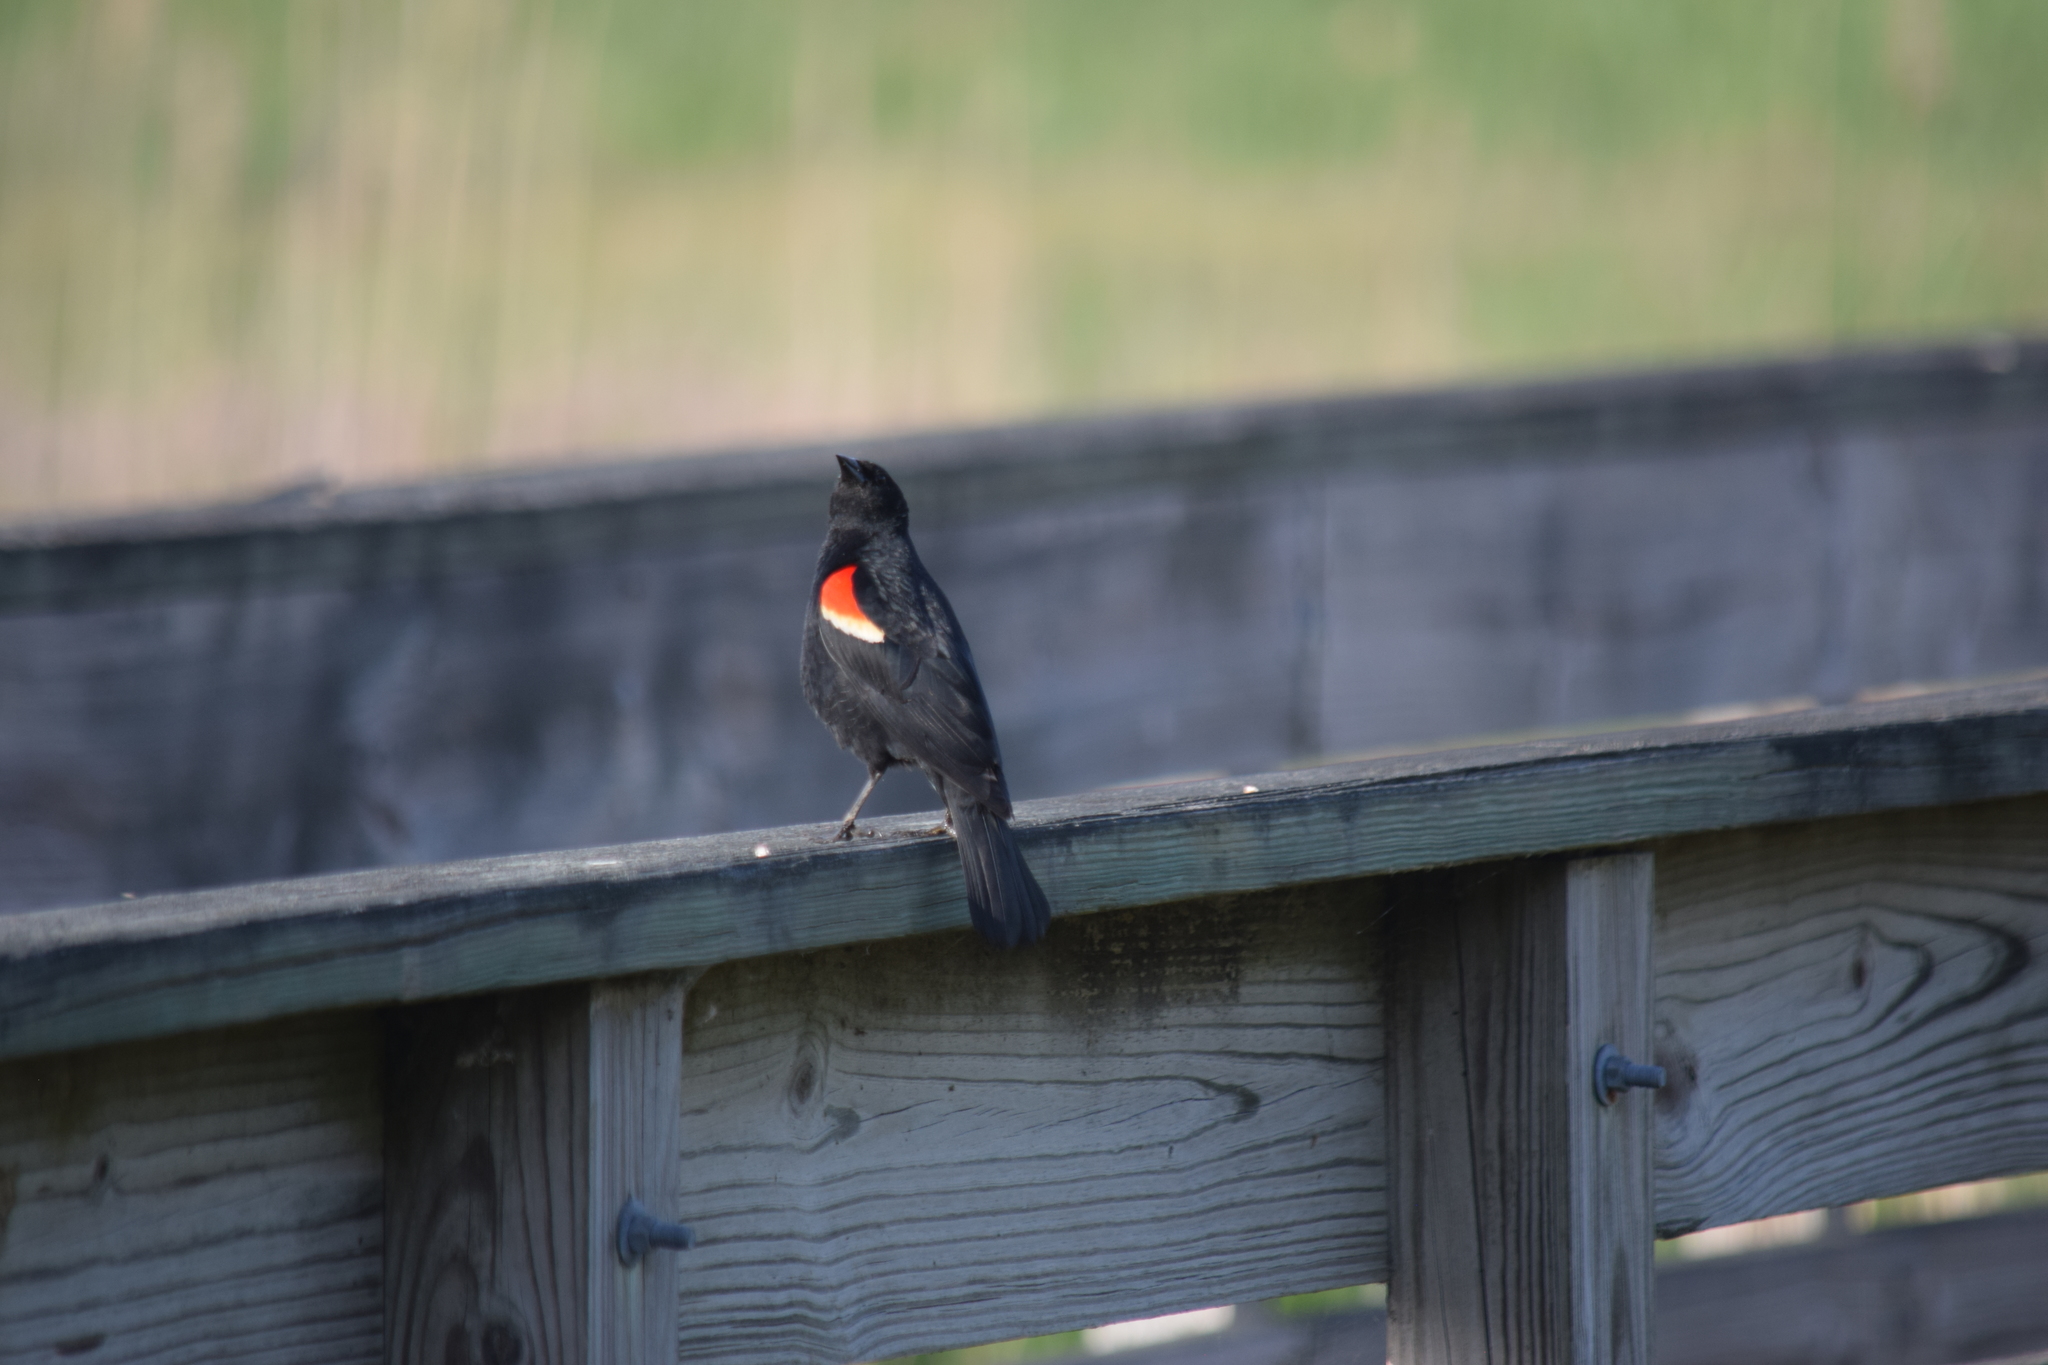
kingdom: Animalia
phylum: Chordata
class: Aves
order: Passeriformes
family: Icteridae
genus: Agelaius
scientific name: Agelaius phoeniceus
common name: Red-winged blackbird
